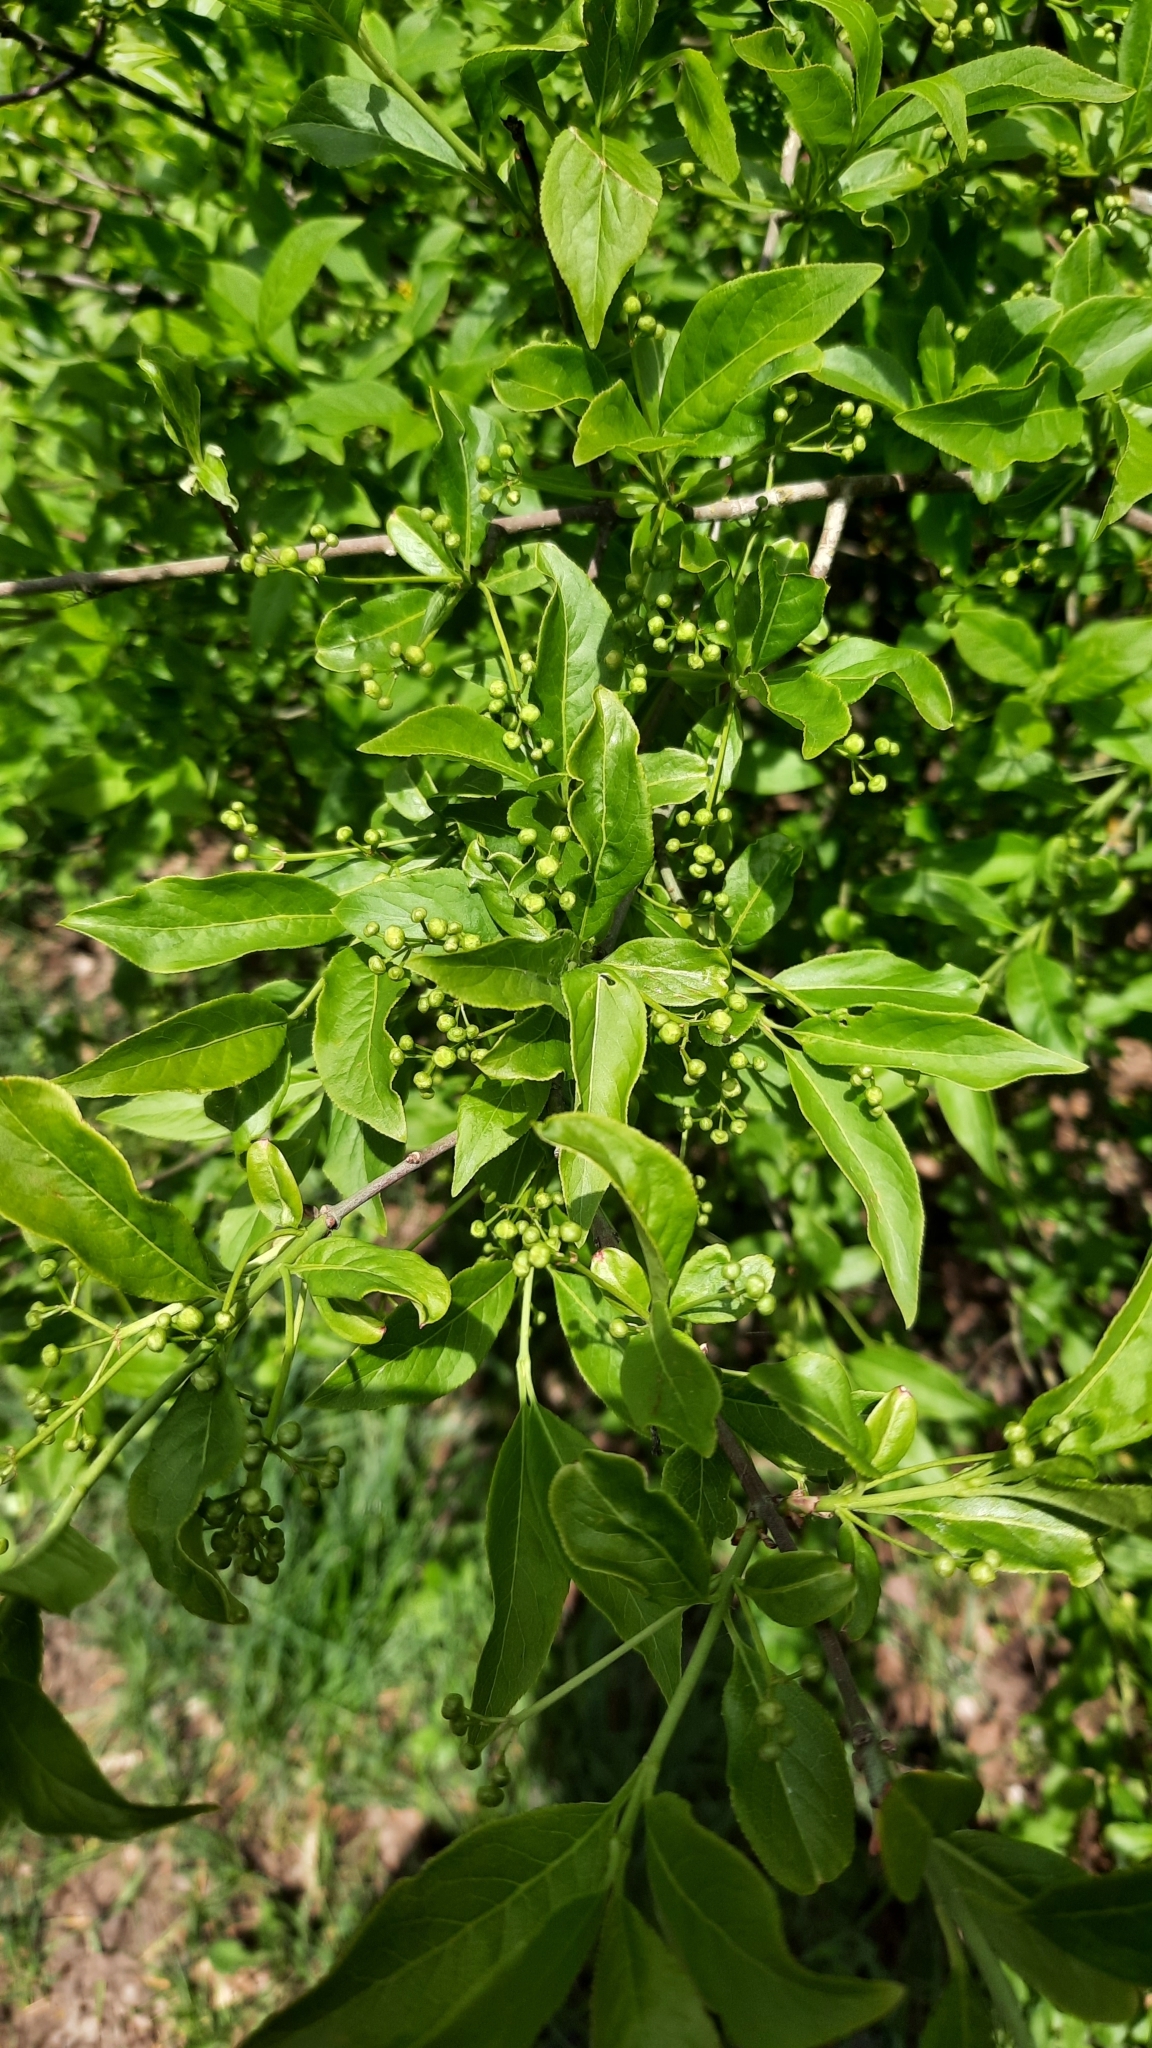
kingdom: Plantae
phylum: Tracheophyta
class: Magnoliopsida
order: Celastrales
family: Celastraceae
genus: Euonymus
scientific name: Euonymus europaeus
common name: Spindle
